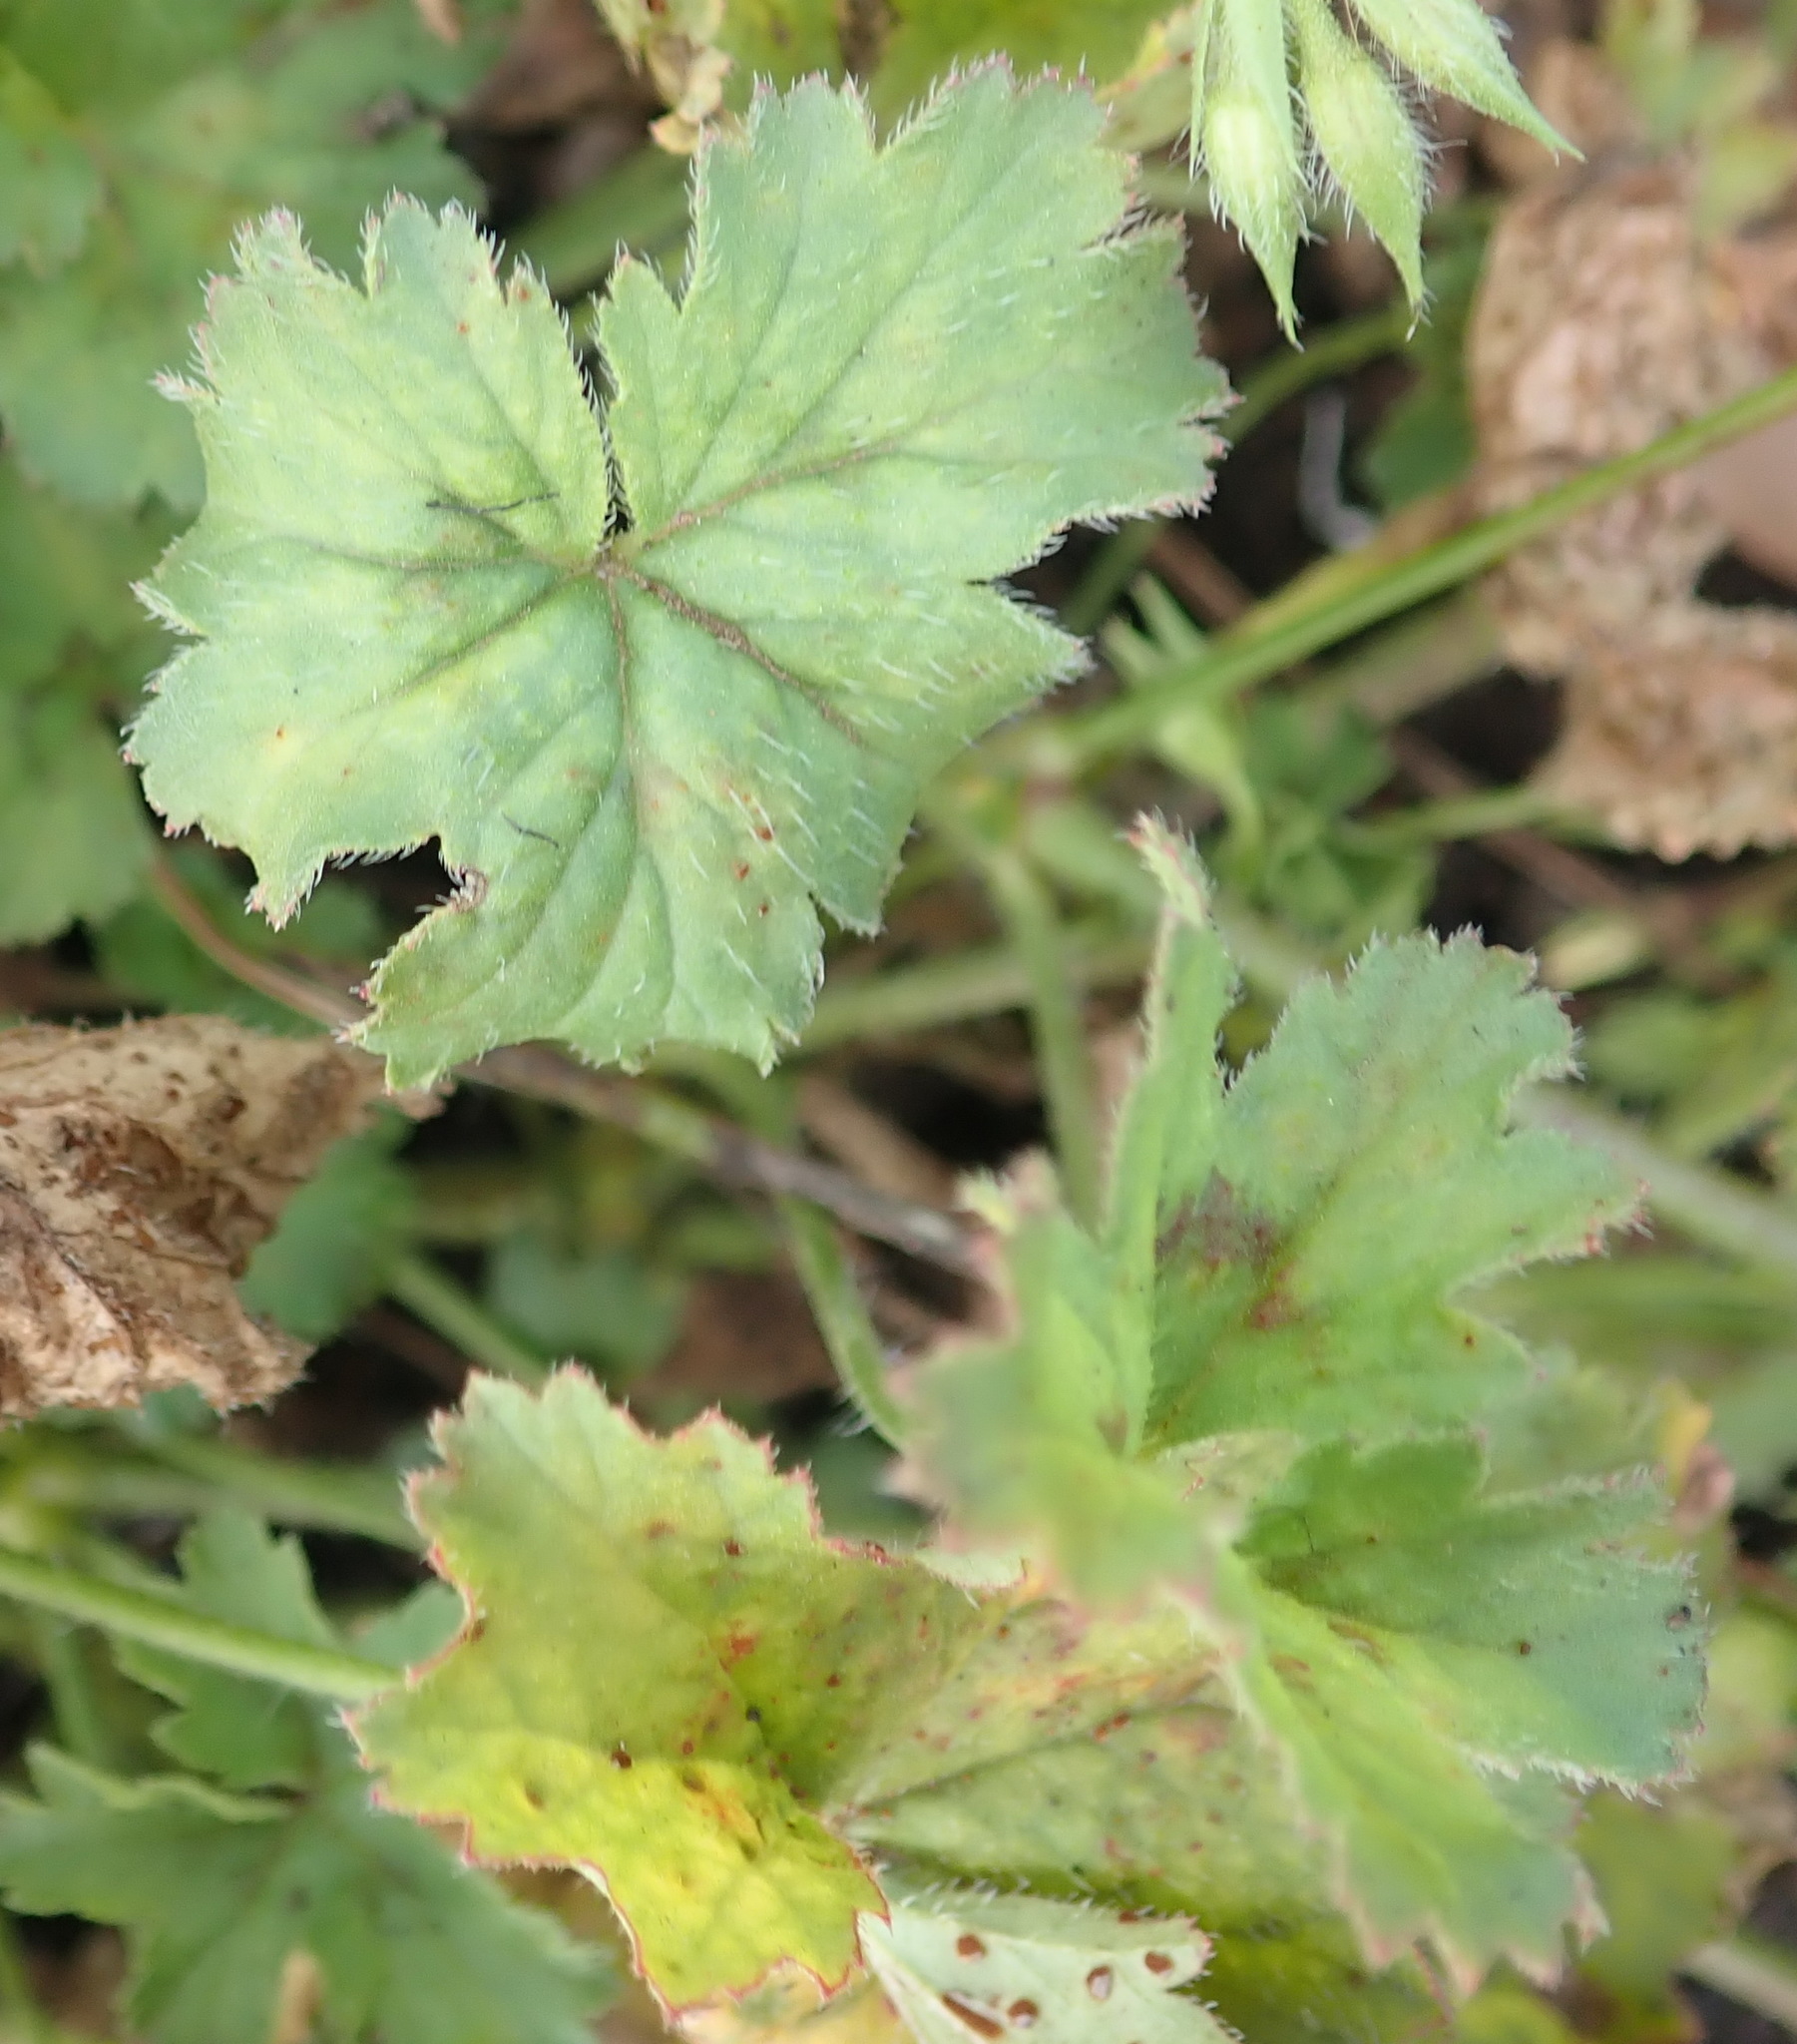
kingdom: Plantae
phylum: Tracheophyta
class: Magnoliopsida
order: Geraniales
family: Geraniaceae
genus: Pelargonium
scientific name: Pelargonium elongatum
